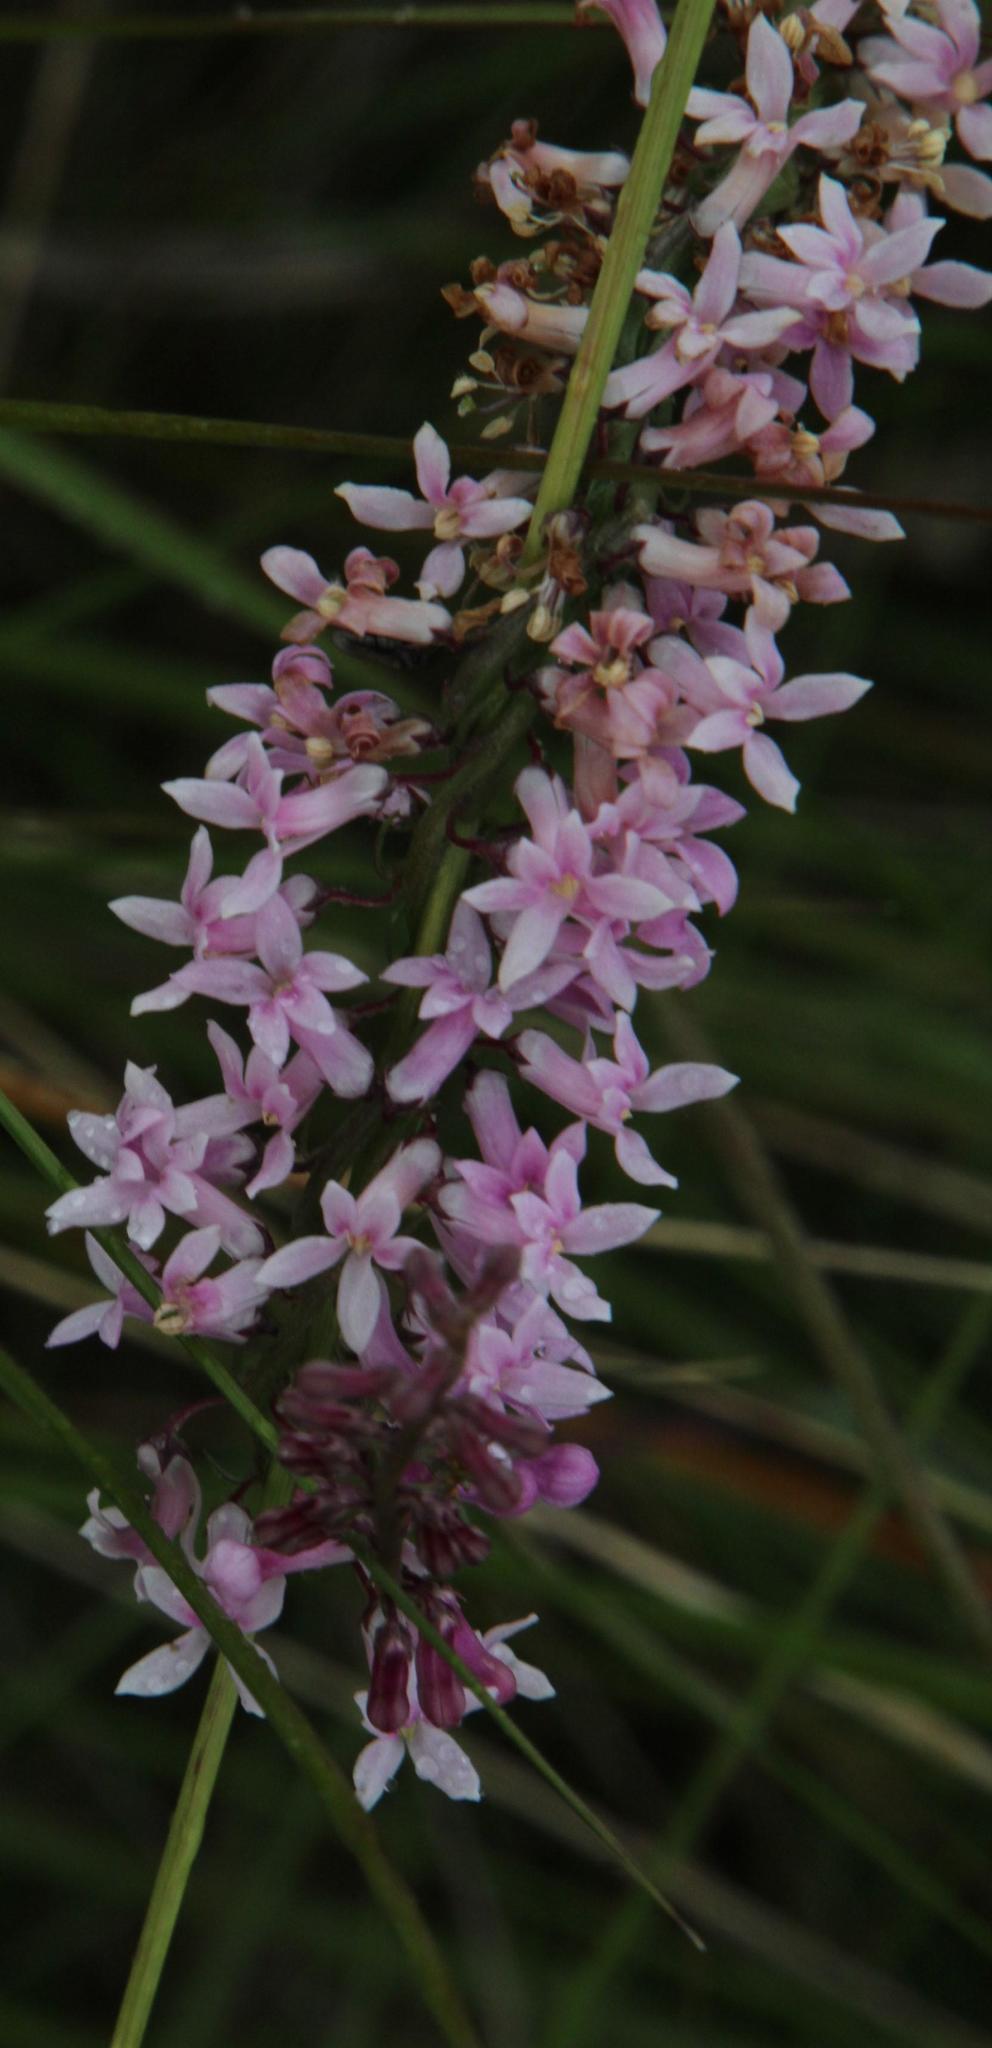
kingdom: Plantae
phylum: Tracheophyta
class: Magnoliopsida
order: Asterales
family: Campanulaceae
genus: Cyphia
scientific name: Cyphia stenopetala
